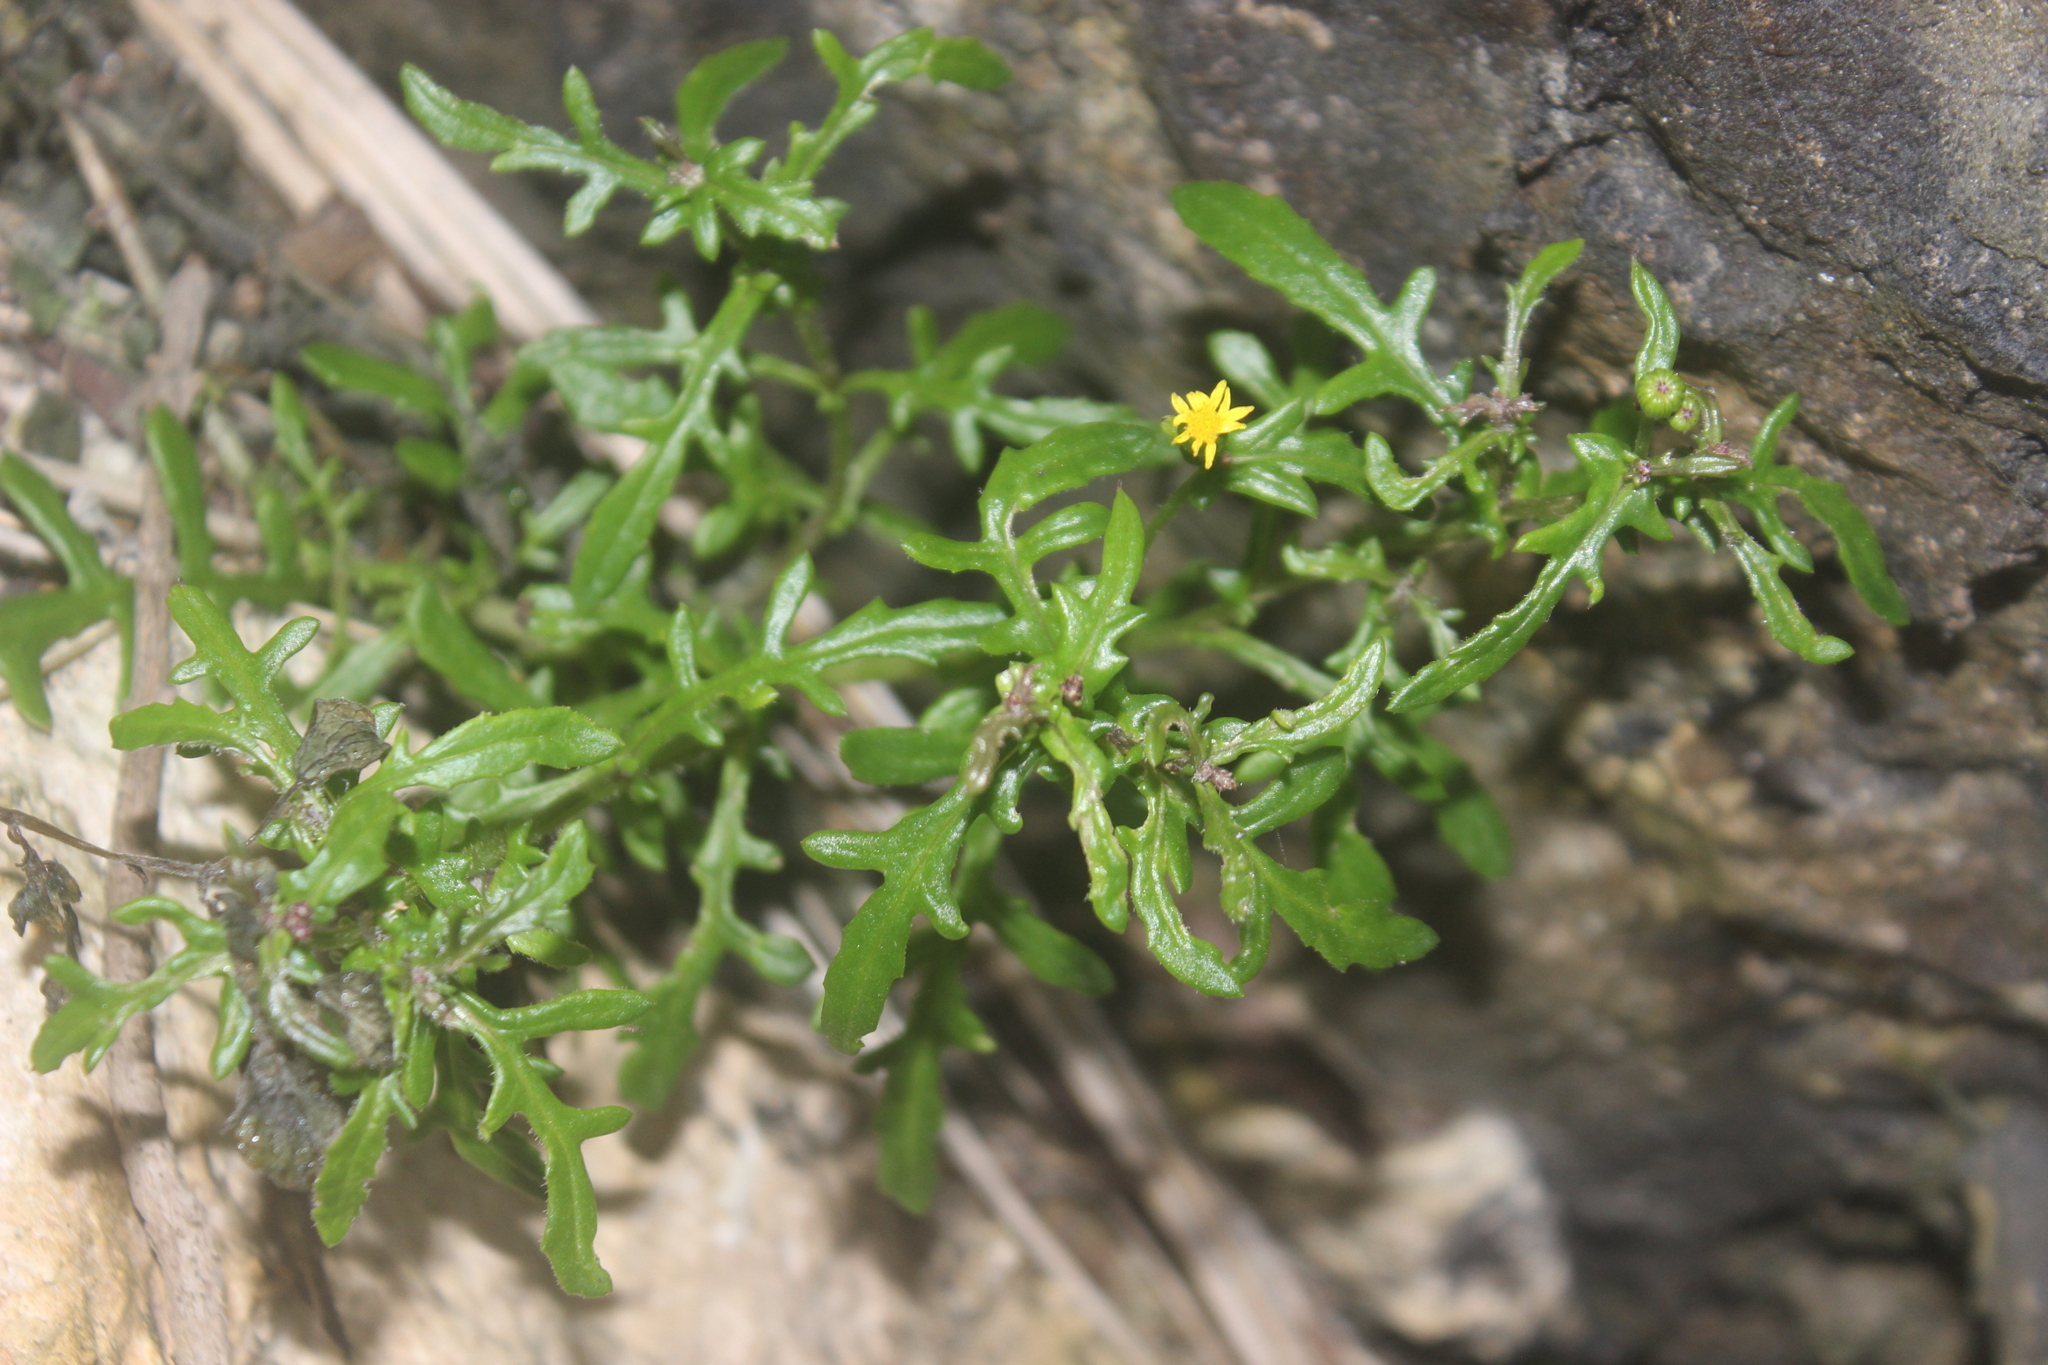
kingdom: Plantae
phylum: Tracheophyta
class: Magnoliopsida
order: Asterales
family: Asteraceae
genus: Senecio
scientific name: Senecio lautus
